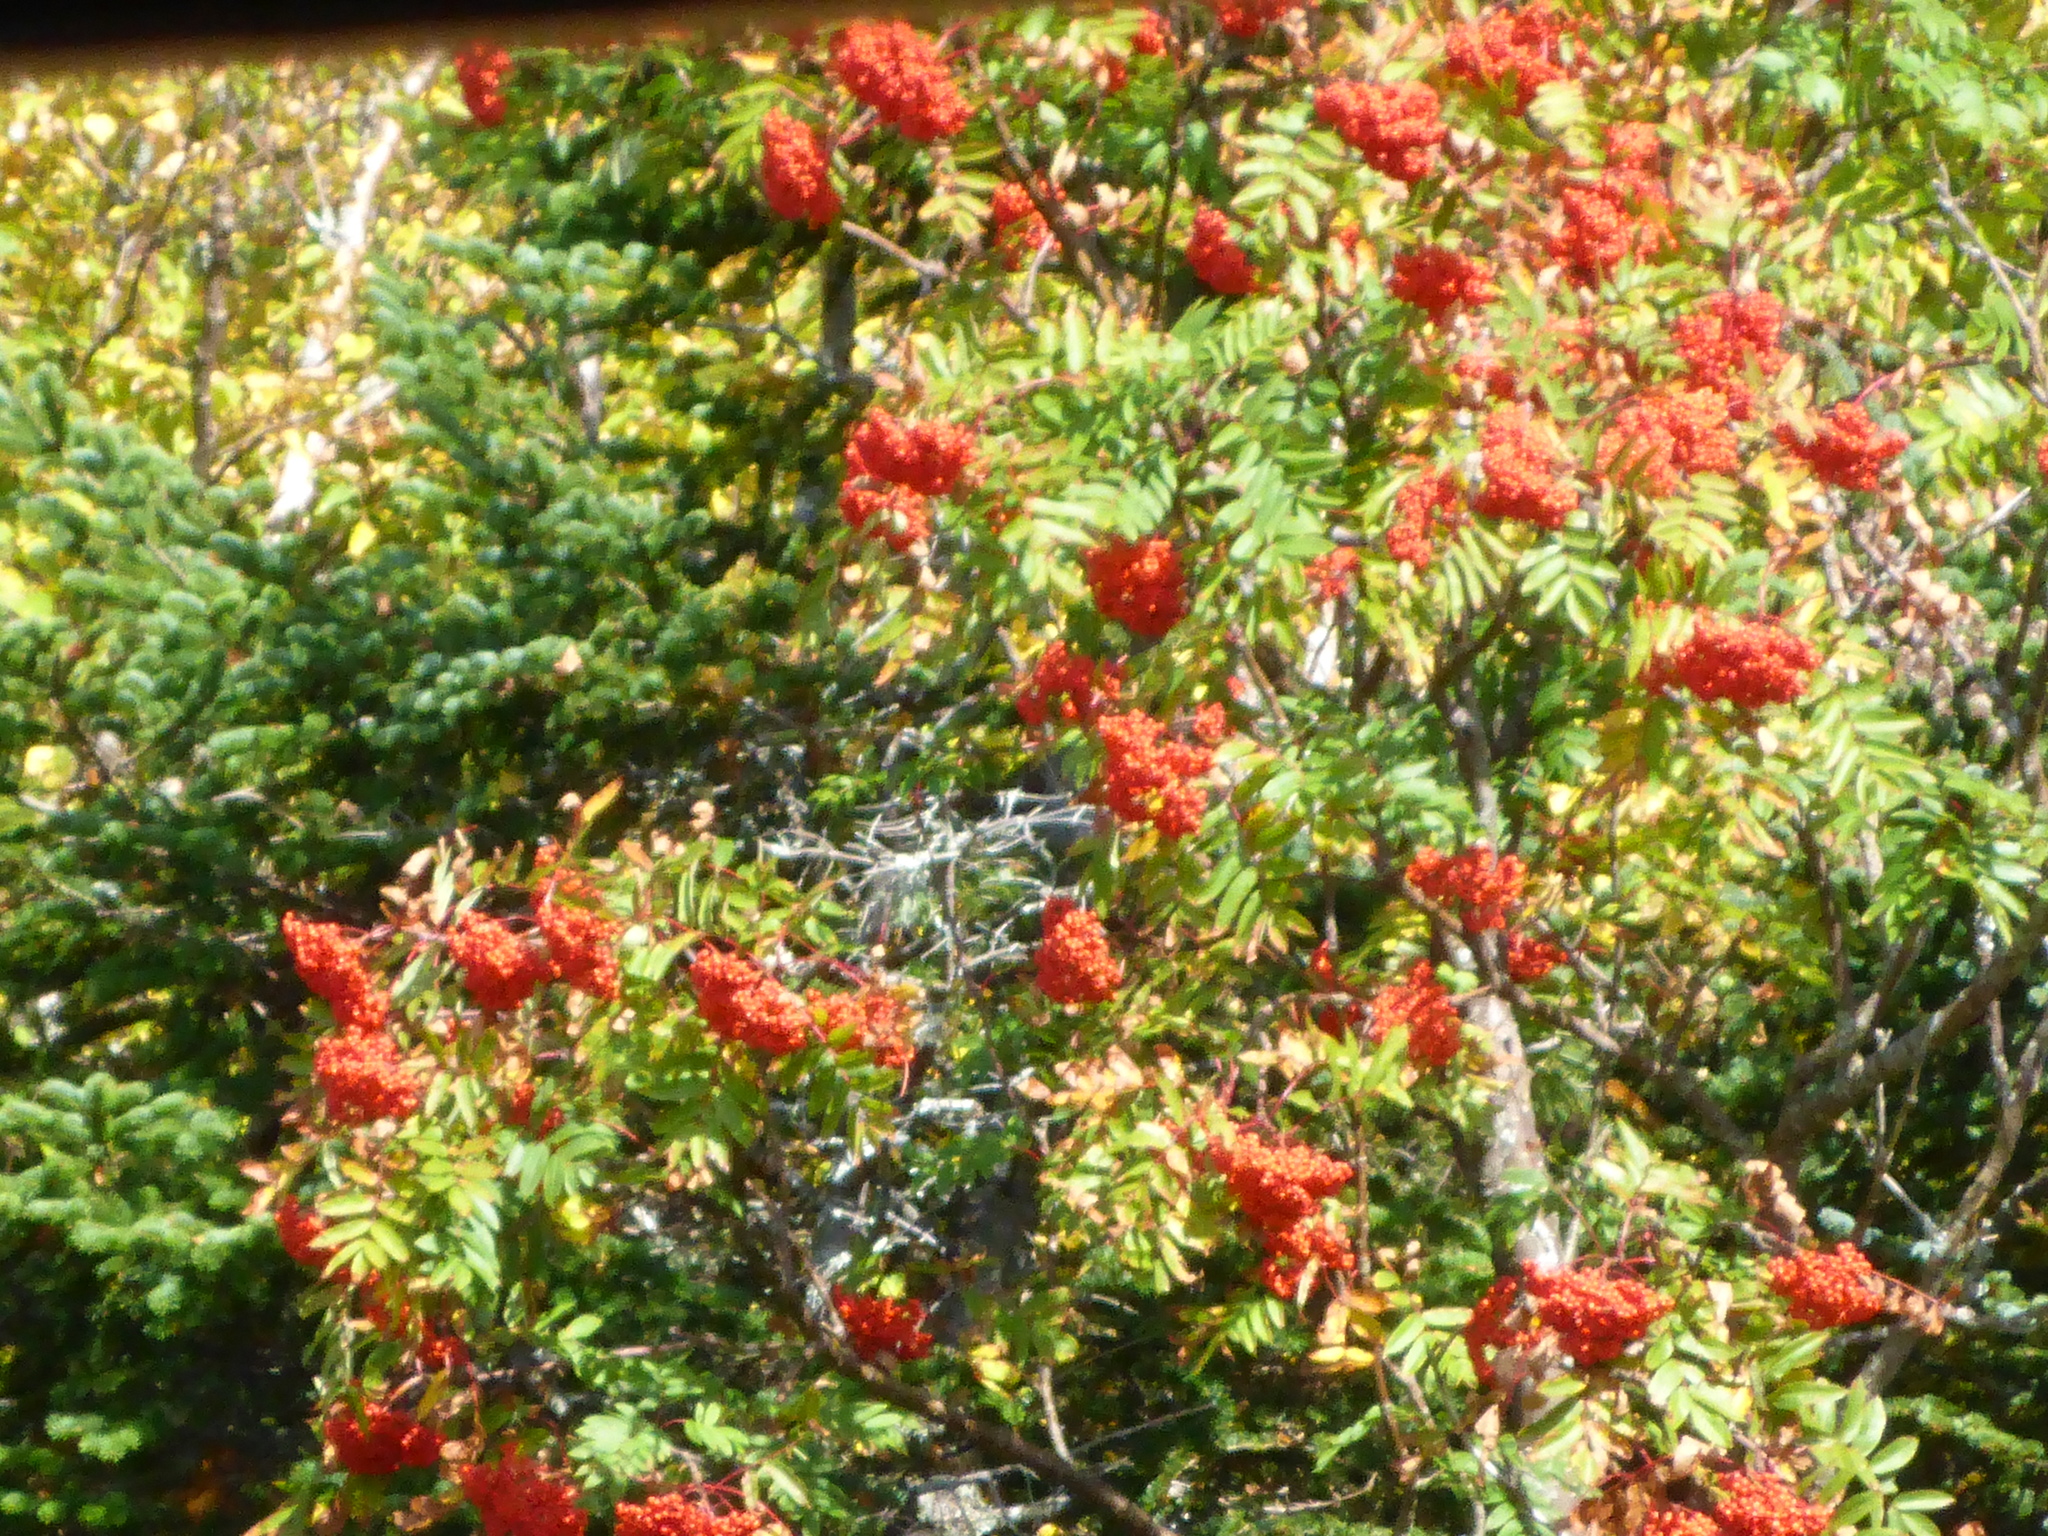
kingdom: Plantae
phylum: Tracheophyta
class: Magnoliopsida
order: Rosales
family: Rosaceae
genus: Sorbus
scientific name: Sorbus americana
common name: American mountain-ash
